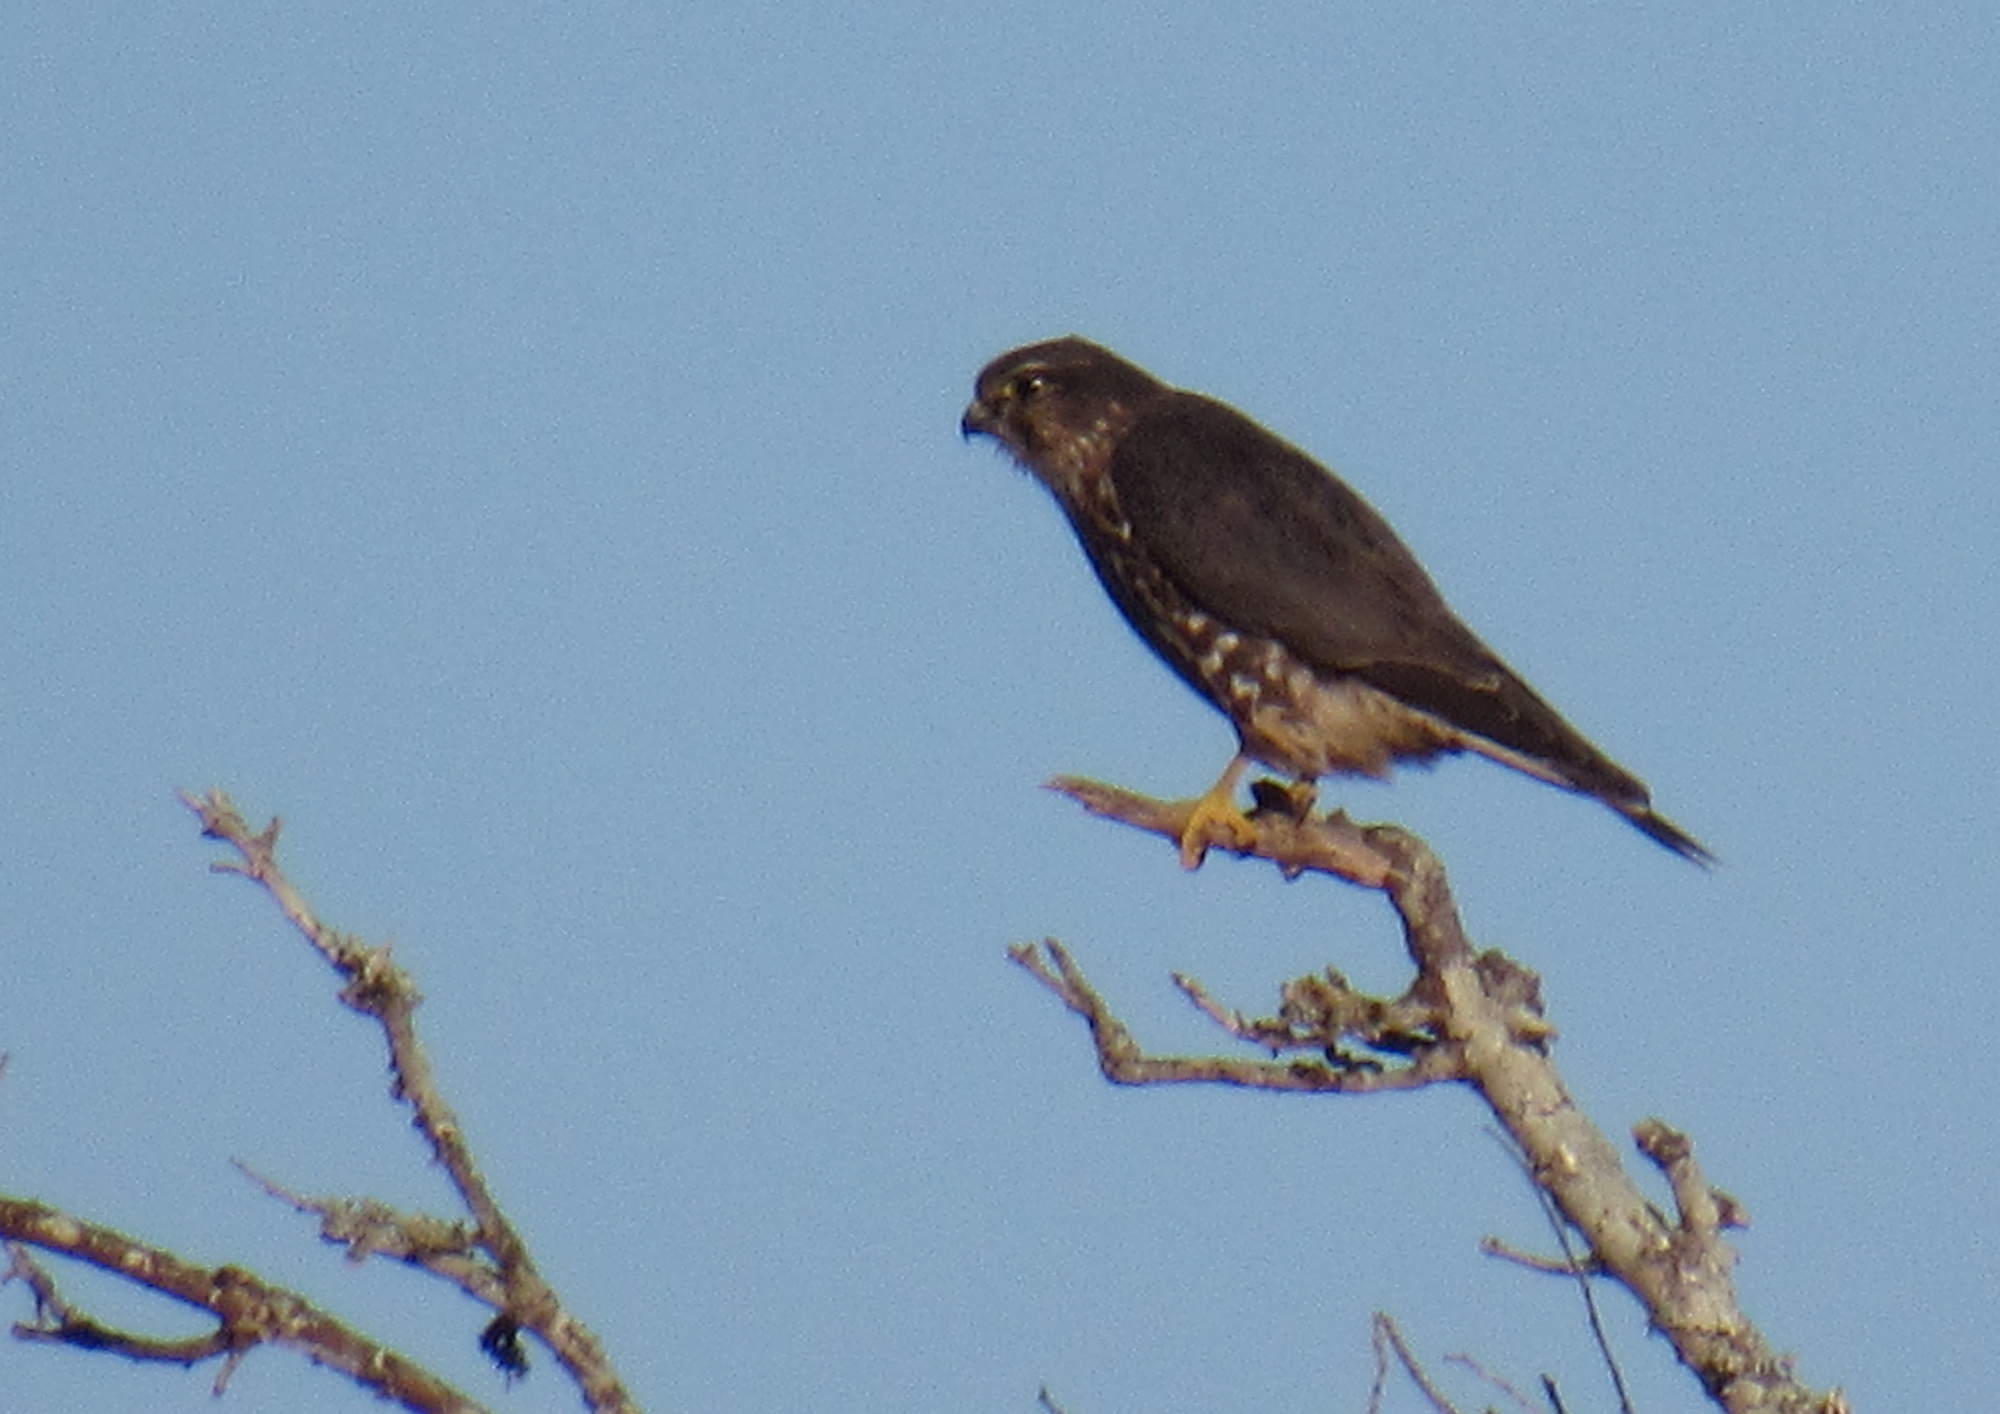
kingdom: Animalia
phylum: Chordata
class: Aves
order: Falconiformes
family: Falconidae
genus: Falco
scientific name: Falco columbarius
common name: Merlin
